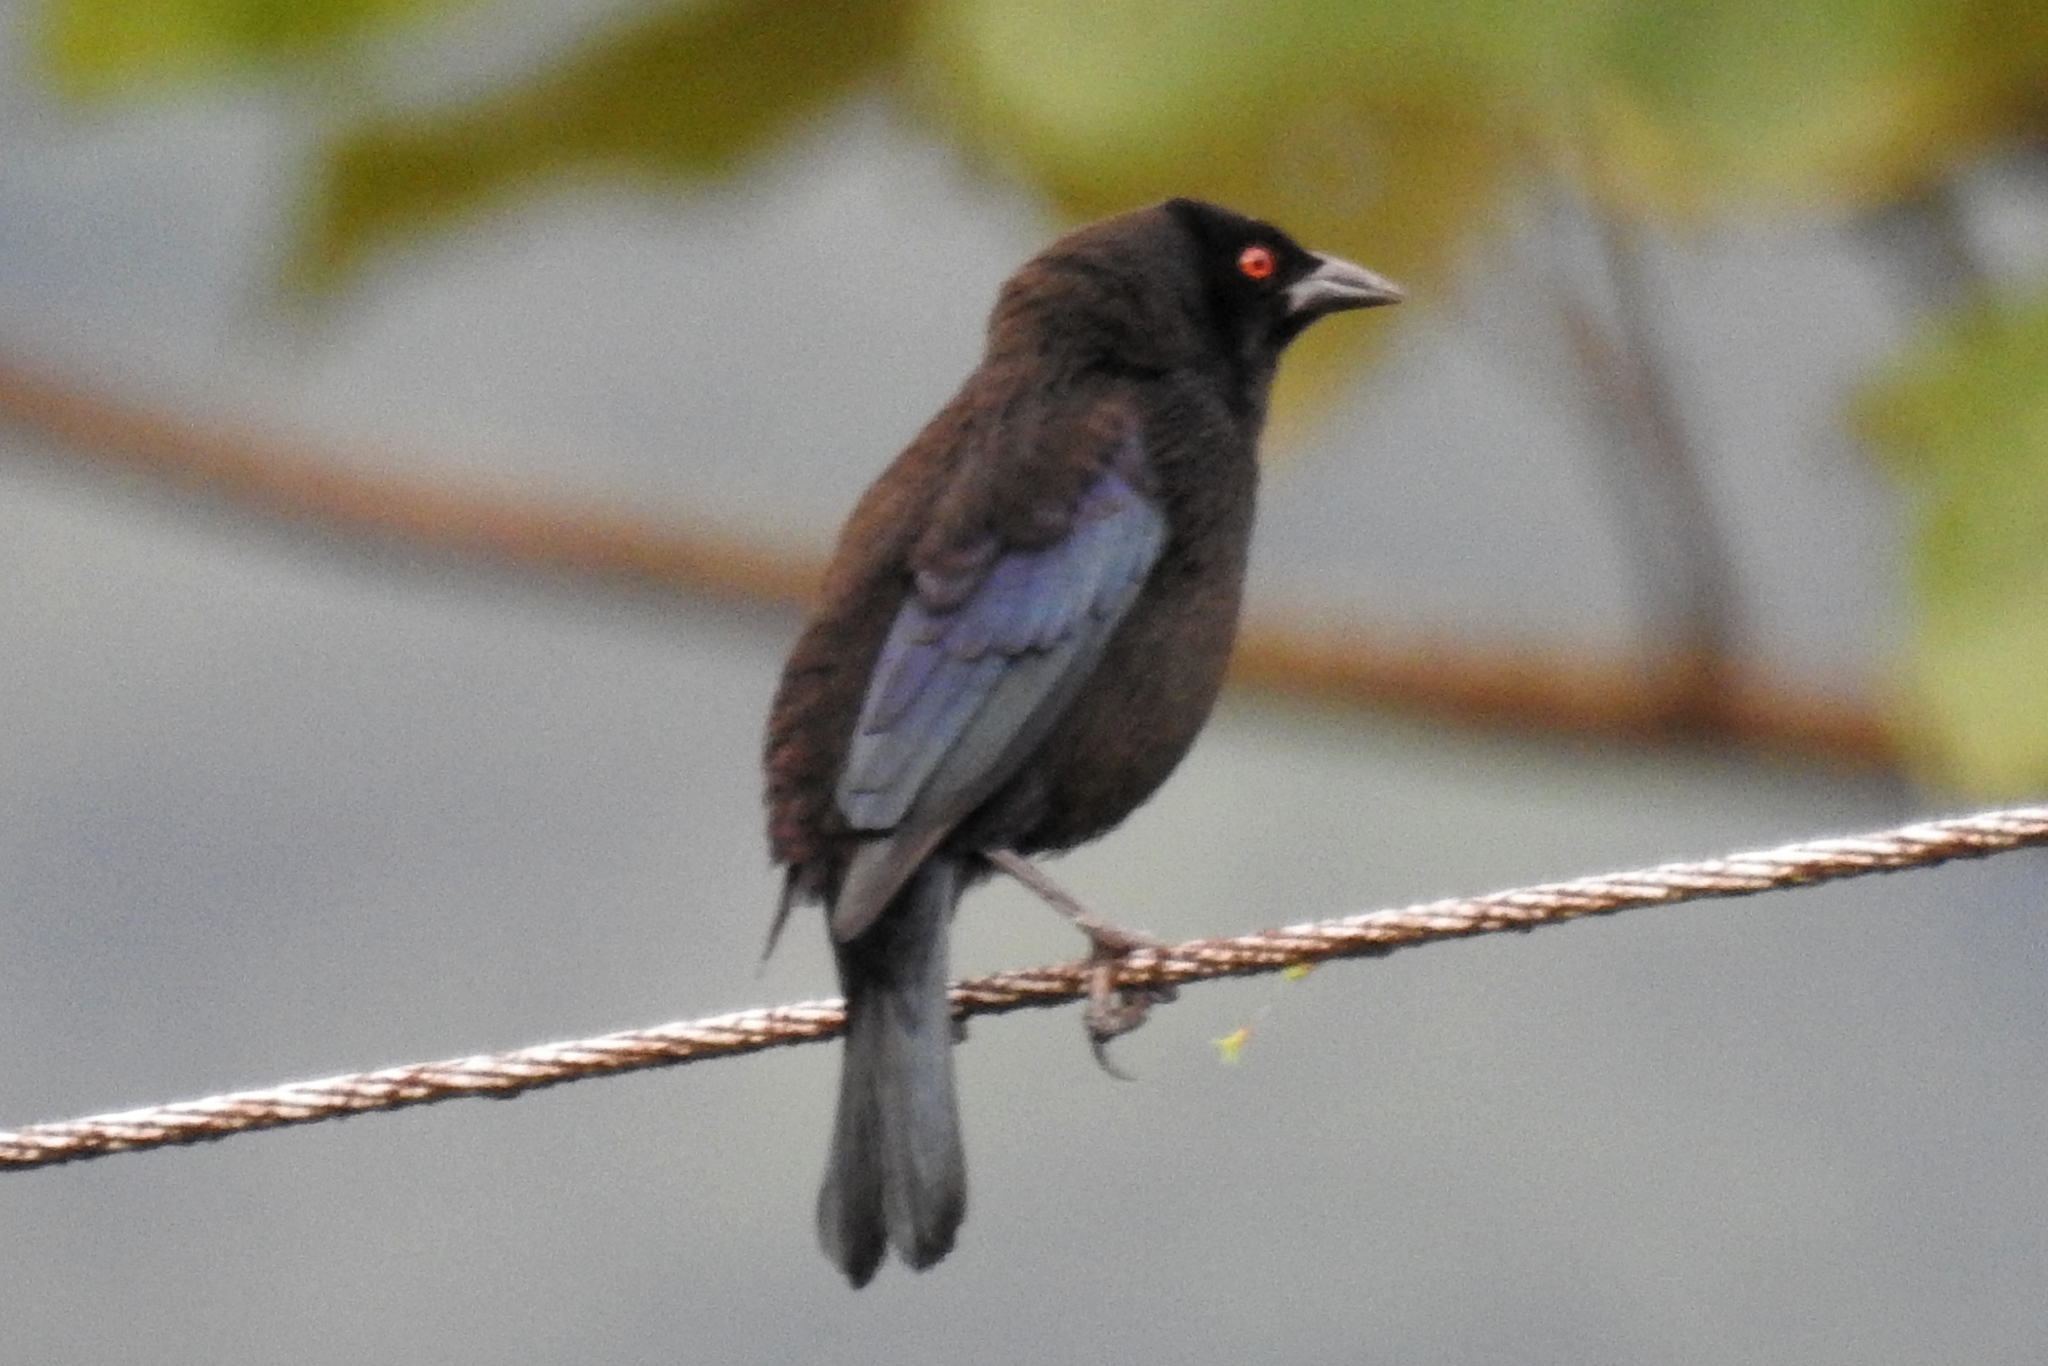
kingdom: Animalia
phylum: Chordata
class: Aves
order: Passeriformes
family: Icteridae
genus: Molothrus
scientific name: Molothrus aeneus
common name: Bronzed cowbird
